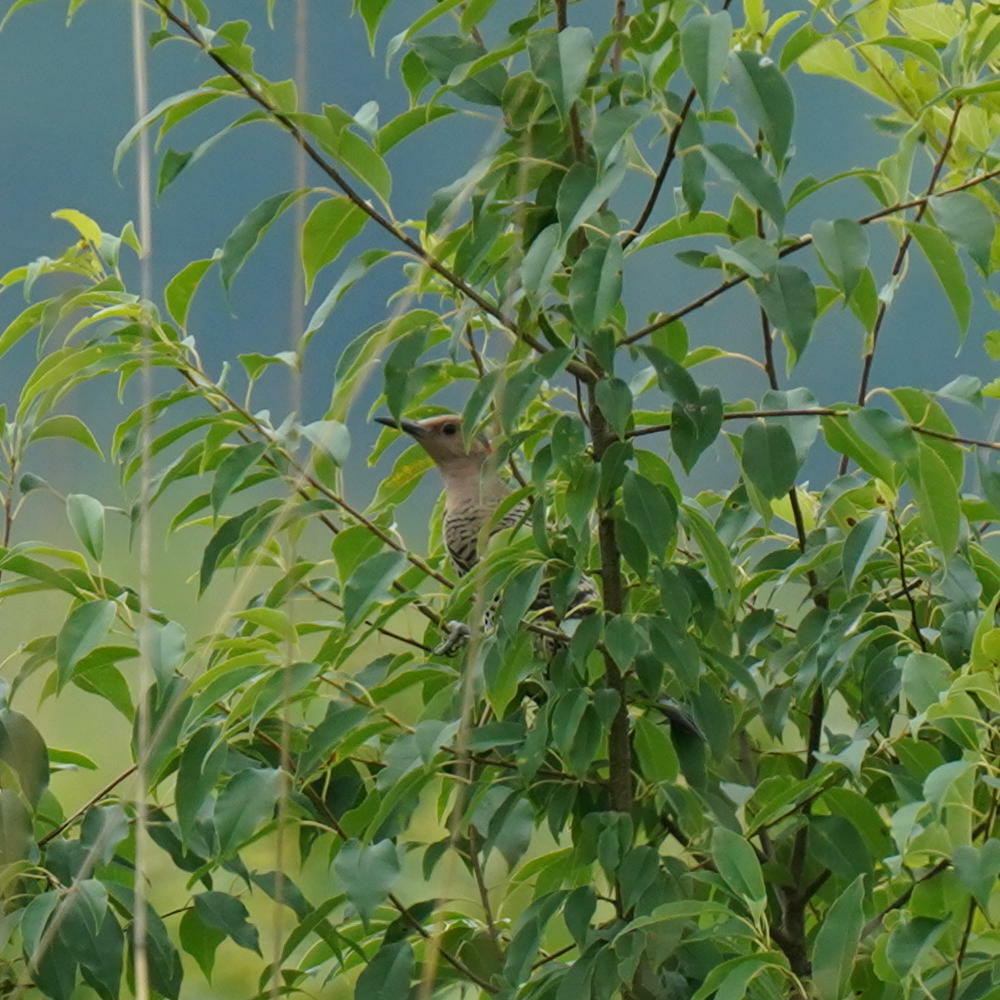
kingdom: Animalia
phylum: Chordata
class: Aves
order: Piciformes
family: Picidae
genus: Colaptes
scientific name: Colaptes auratus
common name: Northern flicker
